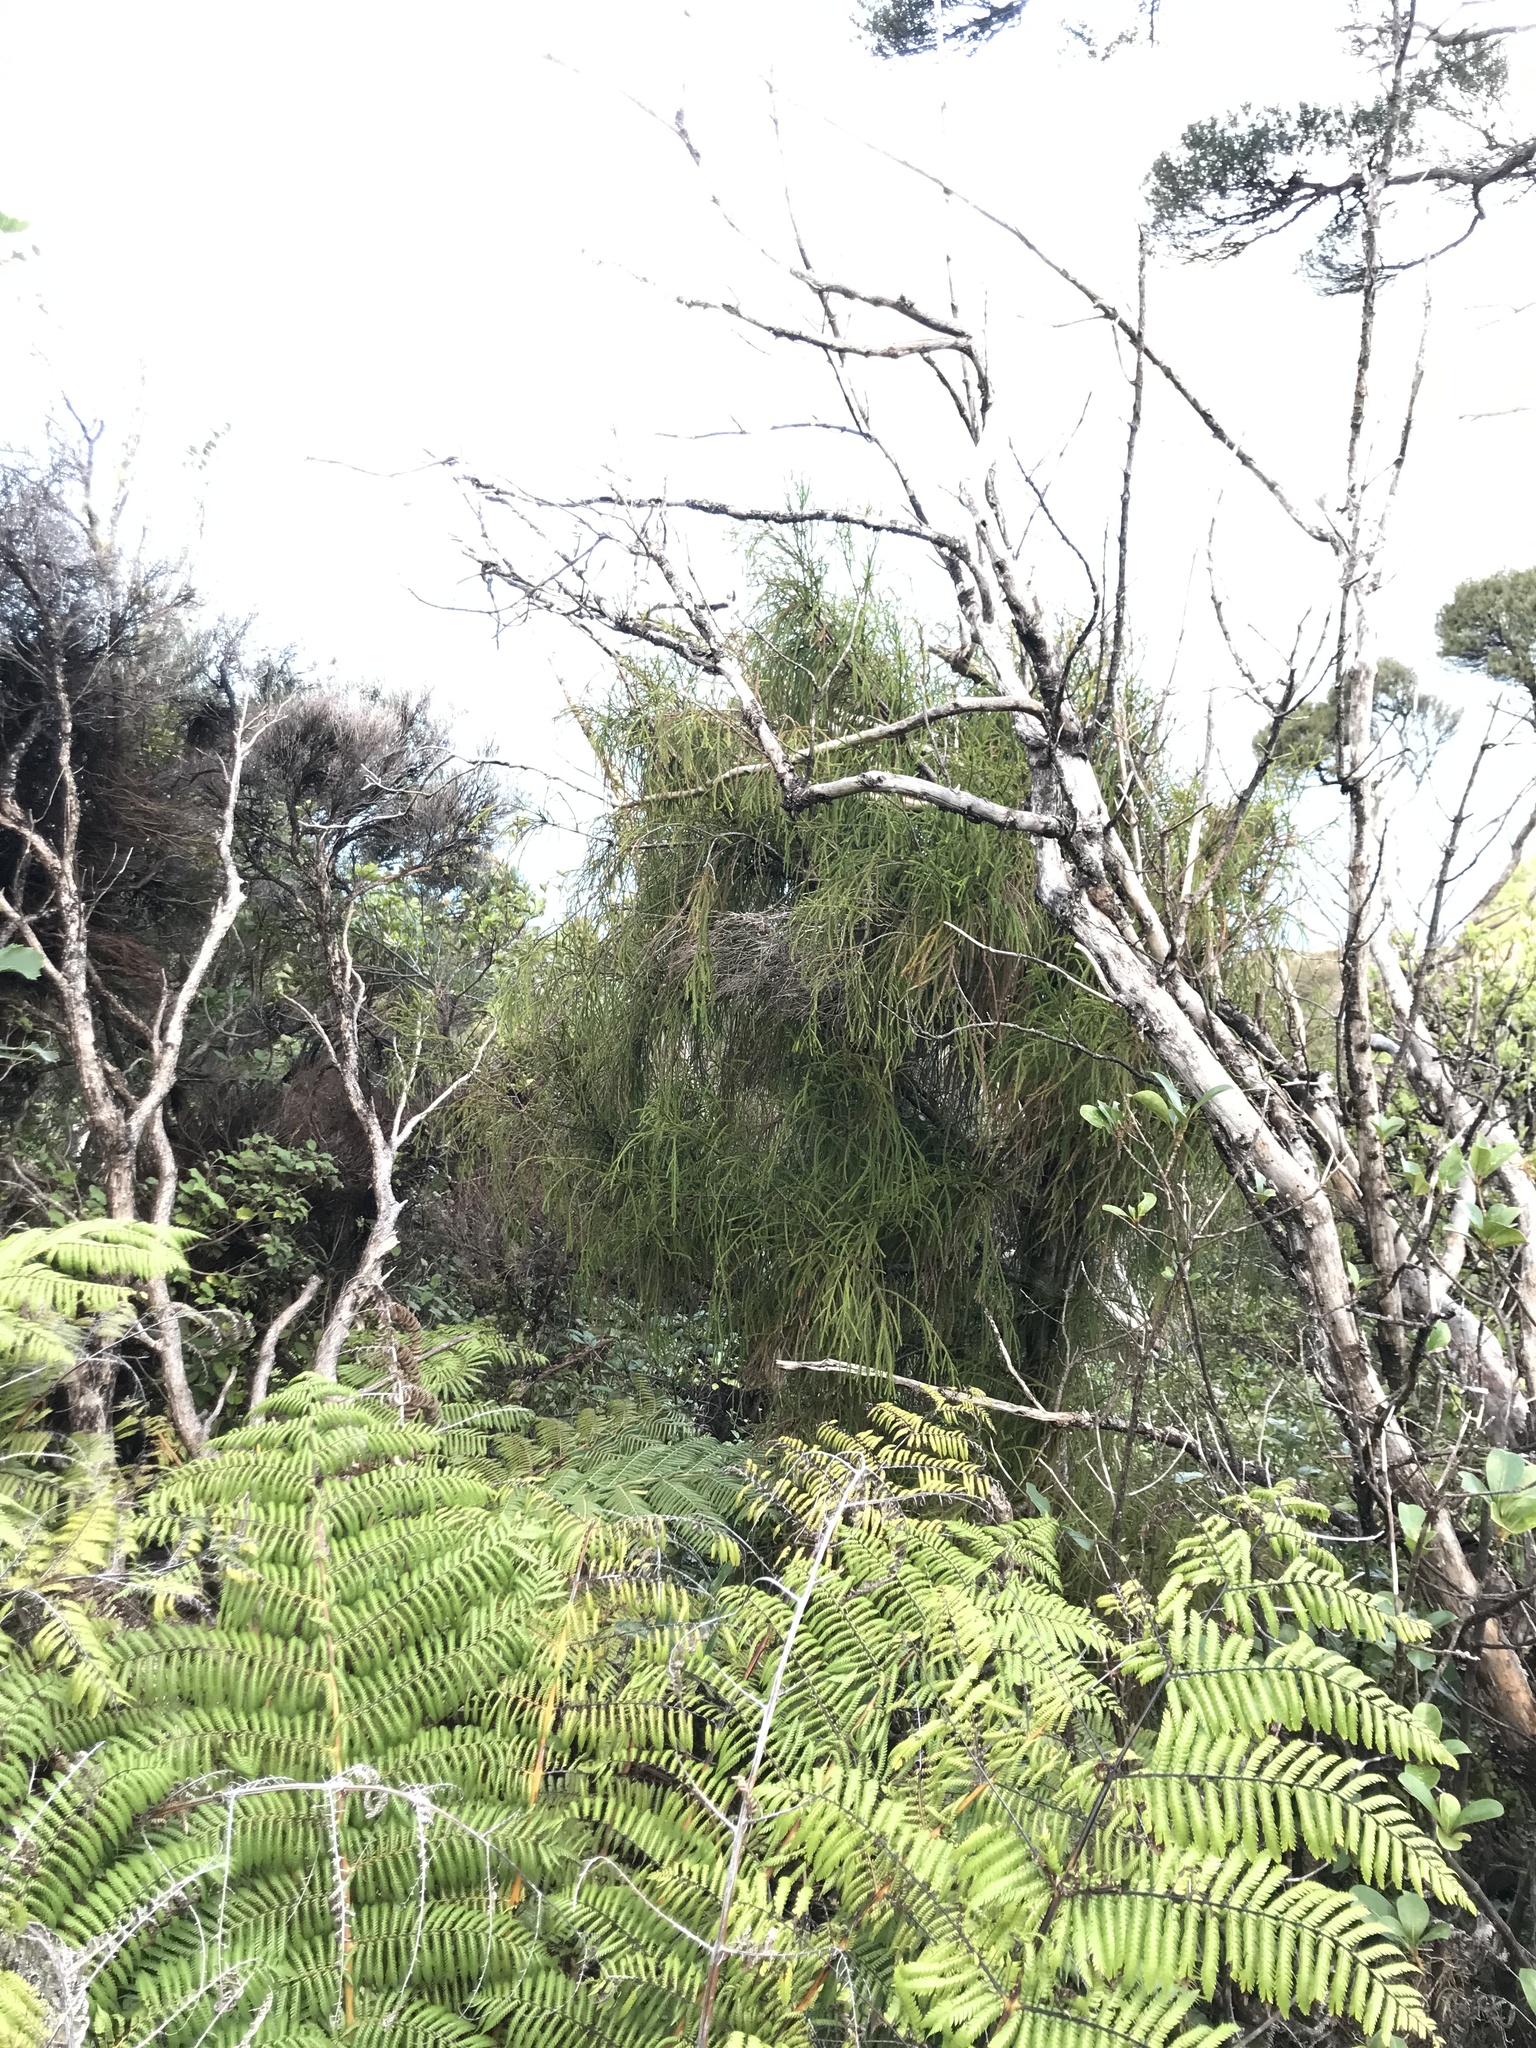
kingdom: Plantae
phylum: Tracheophyta
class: Pinopsida
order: Pinales
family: Podocarpaceae
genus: Dacrydium
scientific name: Dacrydium cupressinum
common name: Red pine
